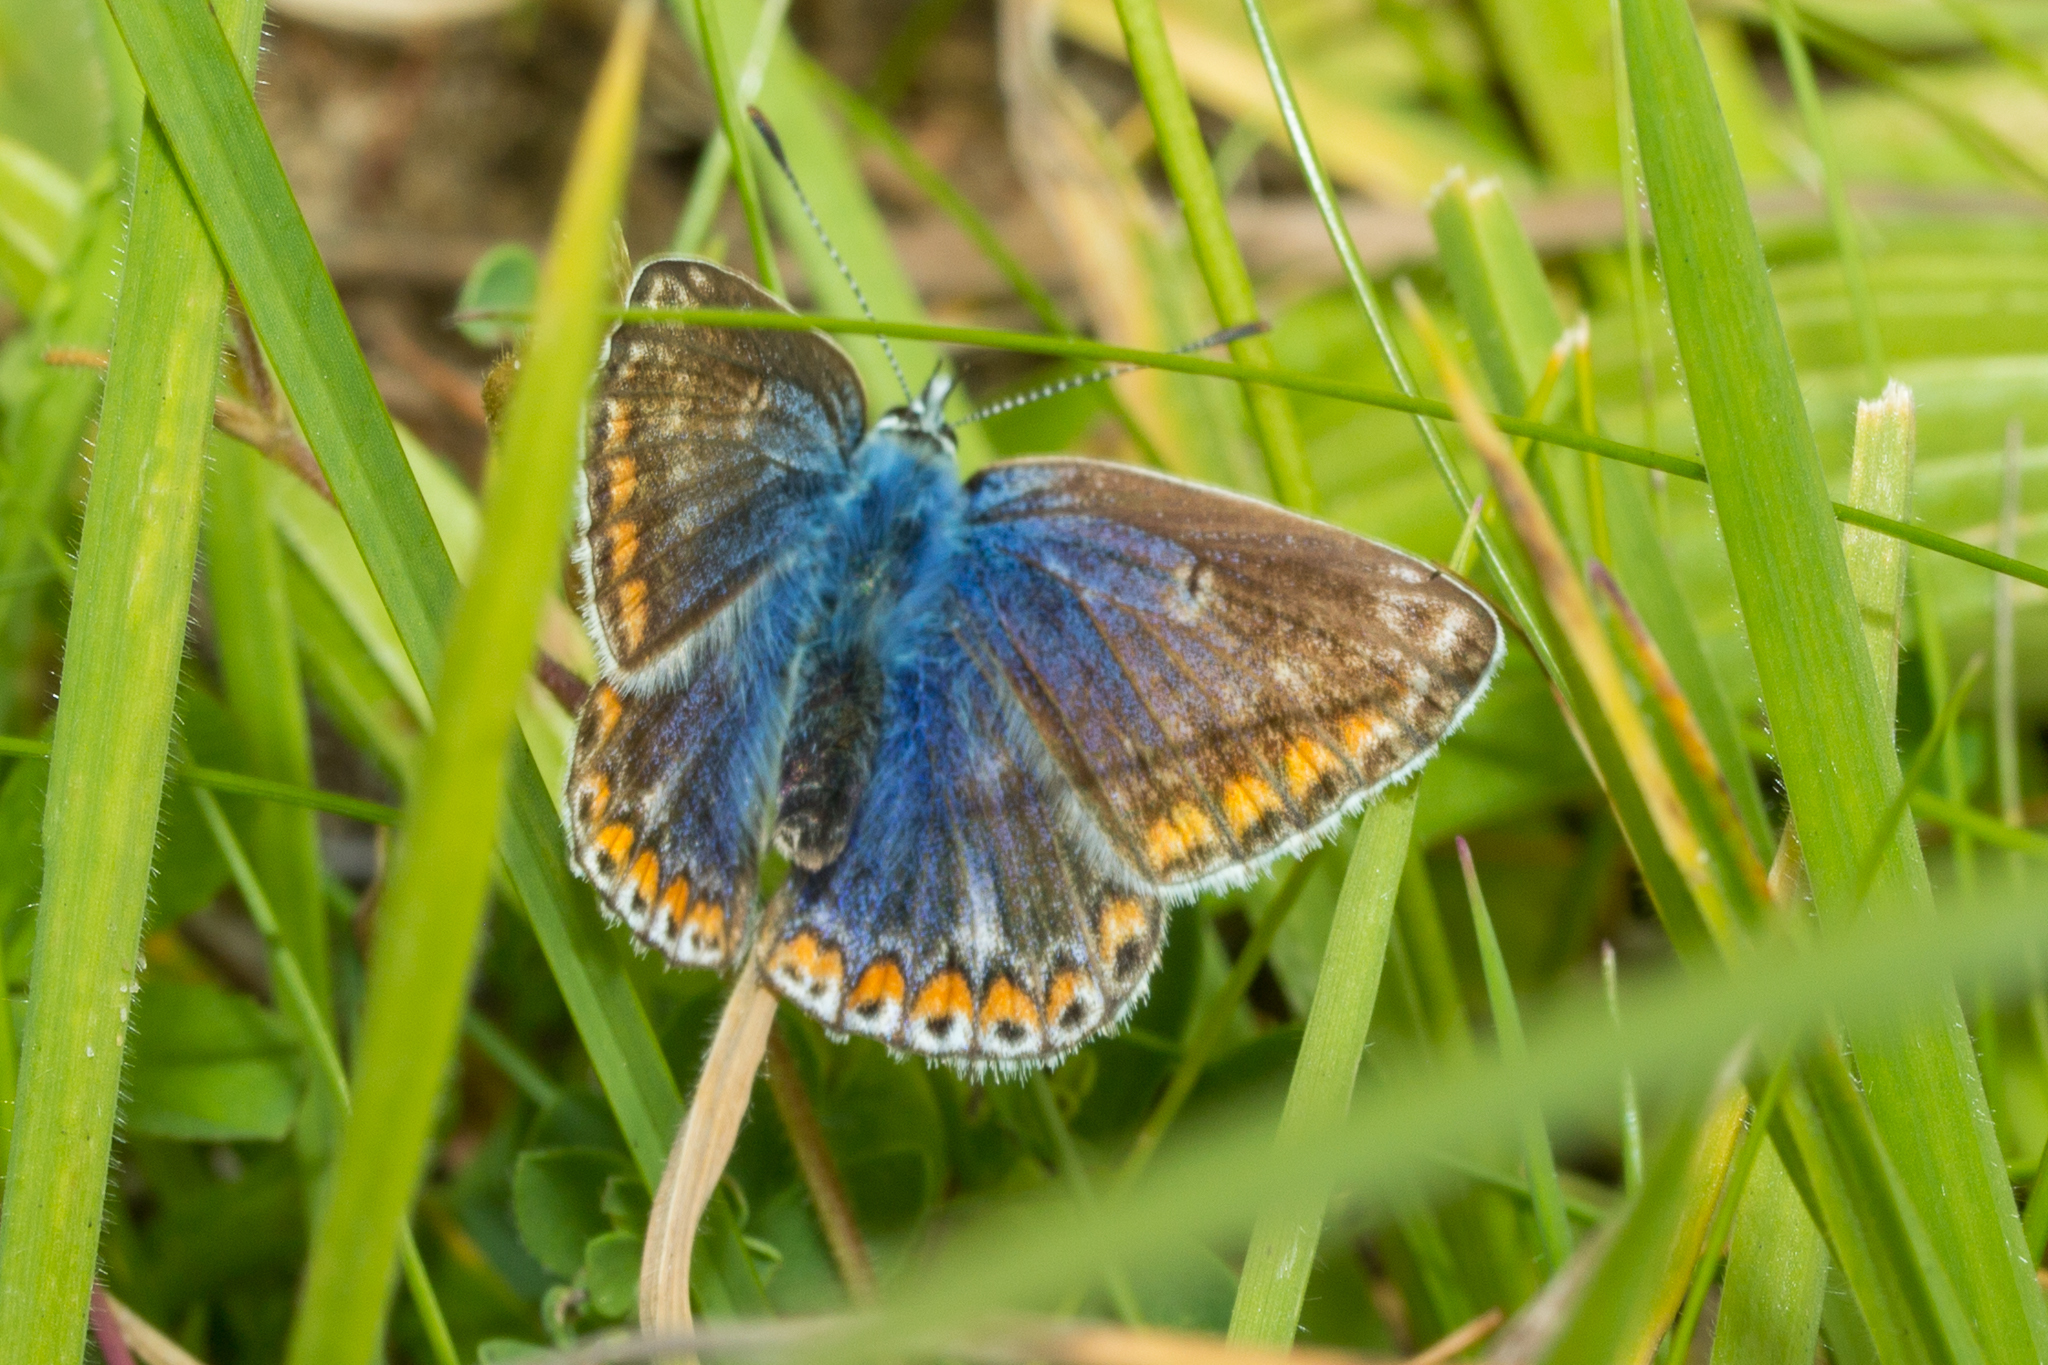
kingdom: Animalia
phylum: Arthropoda
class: Insecta
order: Lepidoptera
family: Lycaenidae
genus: Polyommatus
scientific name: Polyommatus icarus
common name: Common blue
